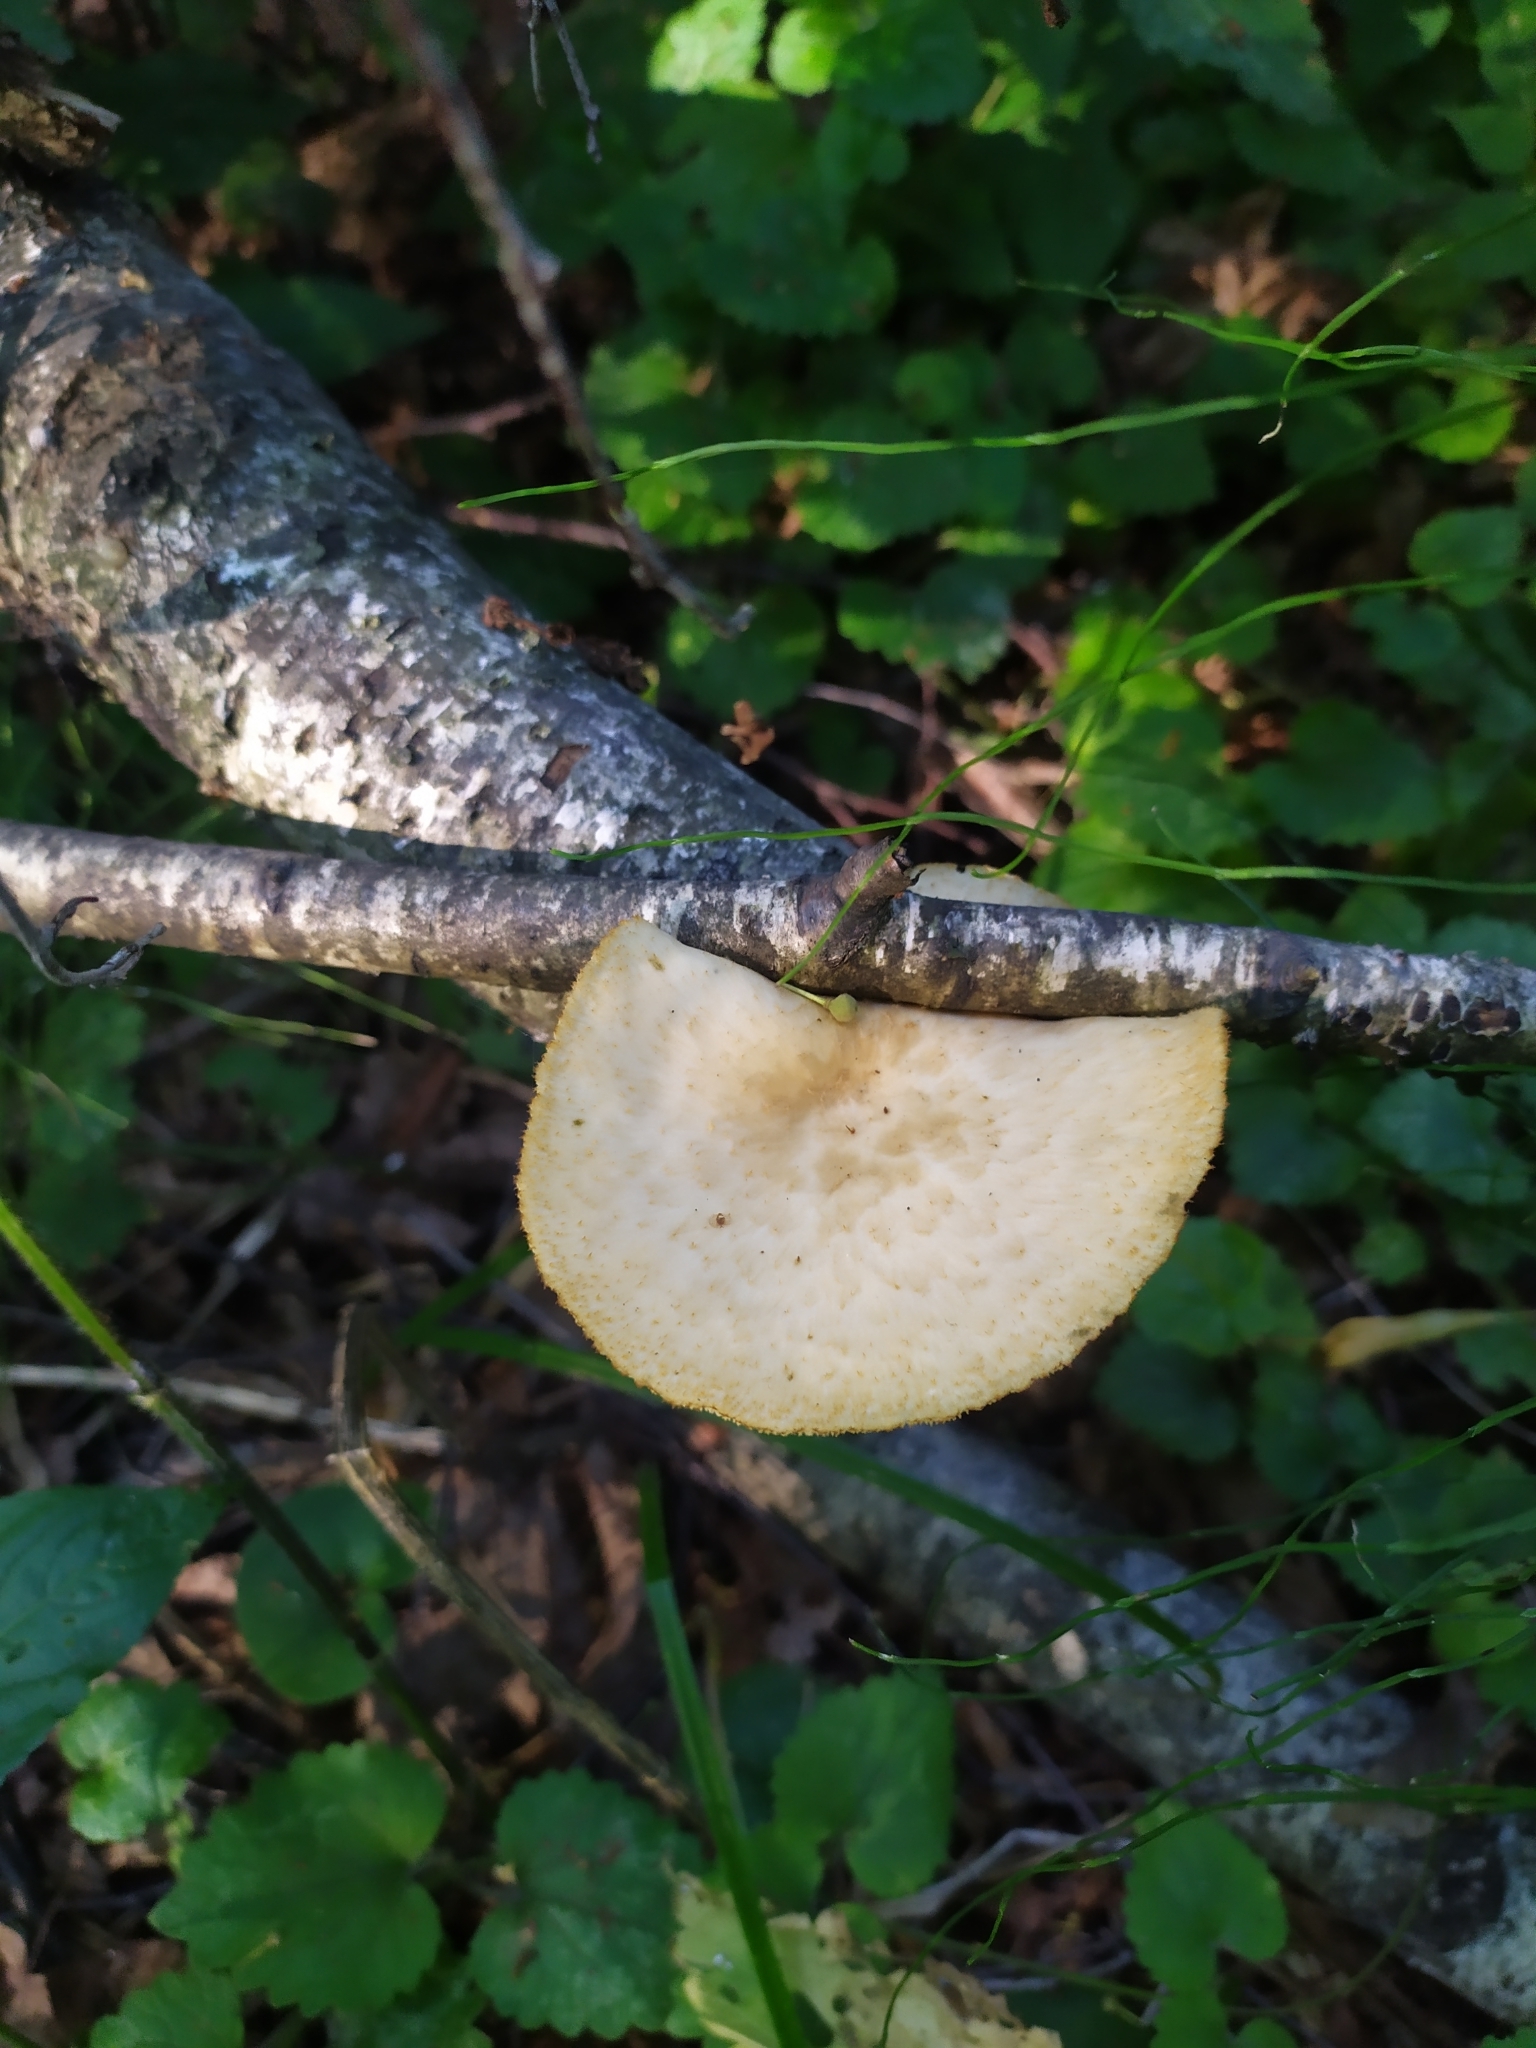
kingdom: Fungi
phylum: Basidiomycota
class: Agaricomycetes
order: Polyporales
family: Polyporaceae
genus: Polyporus
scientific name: Polyporus tuberaster
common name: Tuberous polypore
